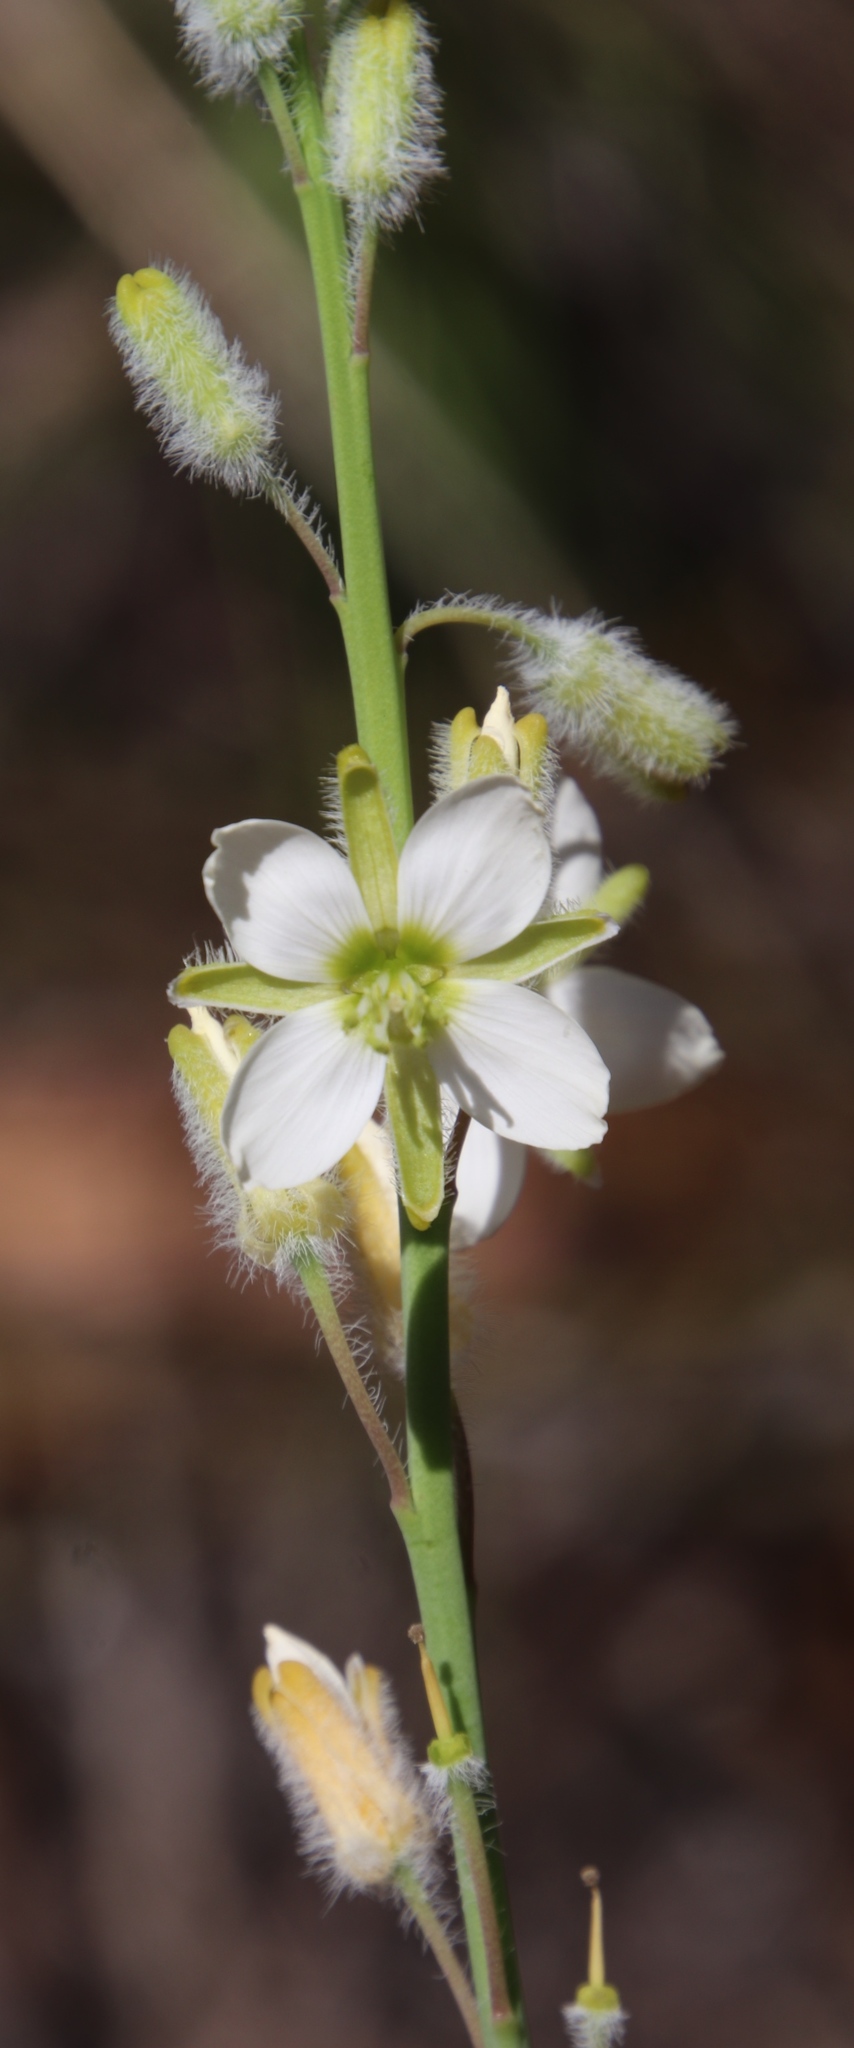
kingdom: Plantae
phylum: Tracheophyta
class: Magnoliopsida
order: Brassicales
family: Brassicaceae
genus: Heliophila
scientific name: Heliophila linearis
